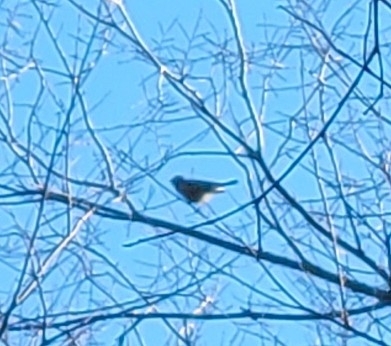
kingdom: Animalia
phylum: Chordata
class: Aves
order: Passeriformes
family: Regulidae
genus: Regulus
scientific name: Regulus satrapa
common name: Golden-crowned kinglet
